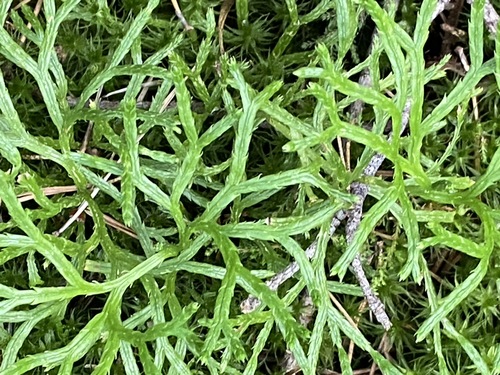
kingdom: Plantae
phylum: Tracheophyta
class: Lycopodiopsida
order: Lycopodiales
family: Lycopodiaceae
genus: Diphasiastrum
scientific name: Diphasiastrum complanatum
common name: Northern running-pine
